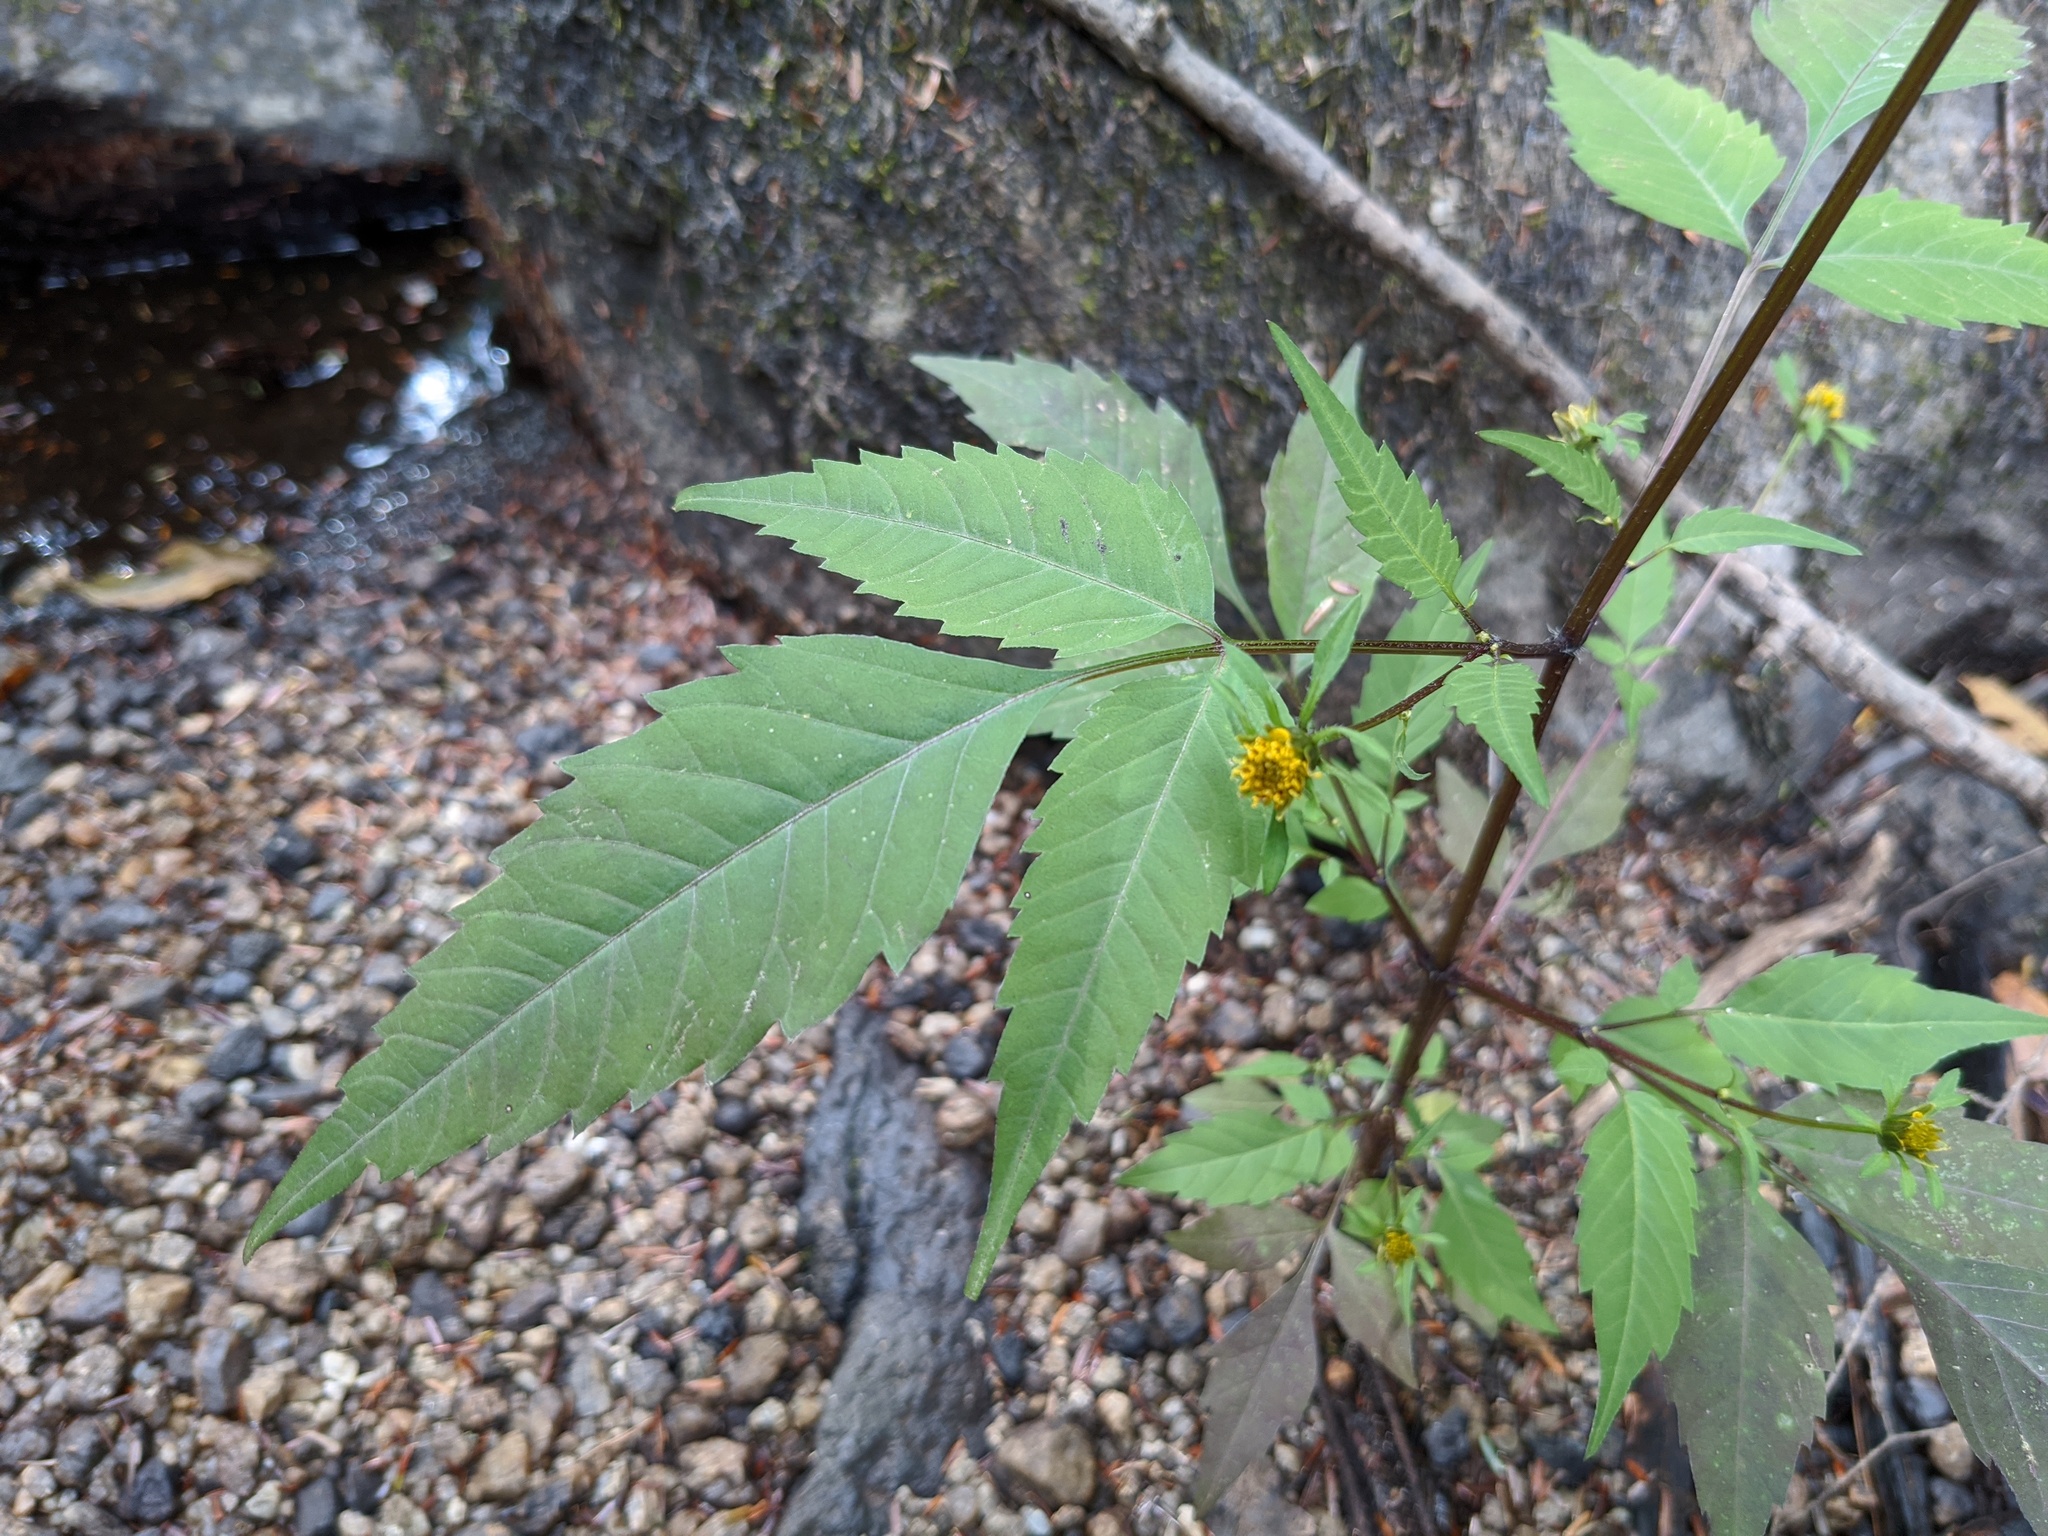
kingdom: Plantae
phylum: Tracheophyta
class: Magnoliopsida
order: Asterales
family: Asteraceae
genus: Bidens
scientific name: Bidens frondosa
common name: Beggarticks
